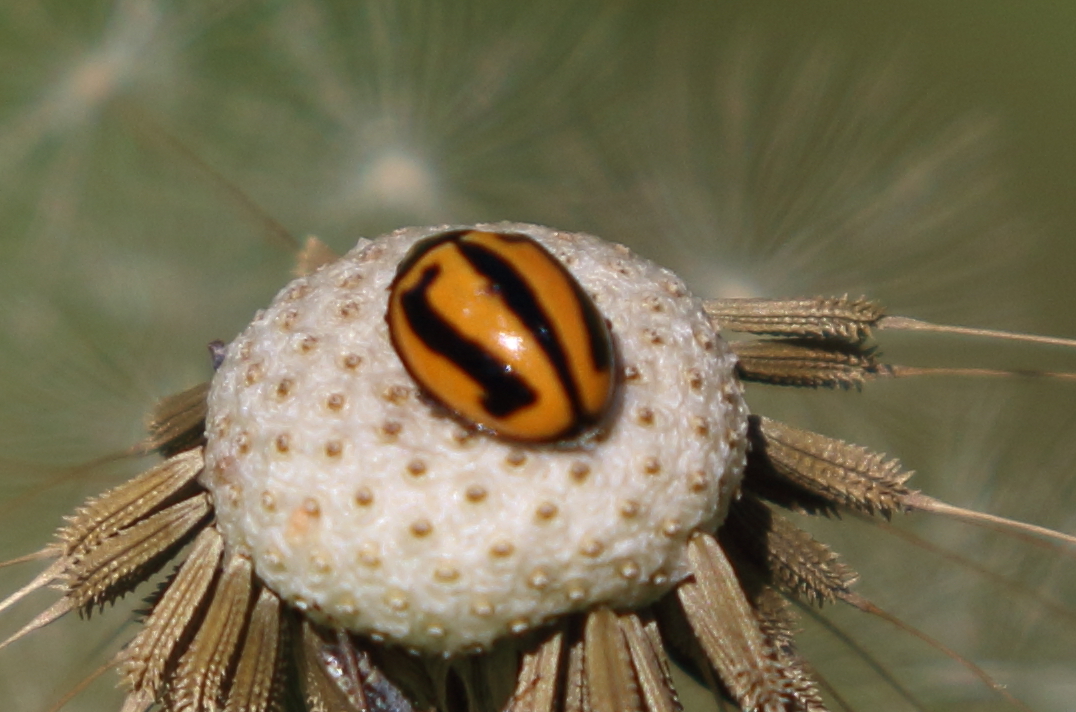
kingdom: Animalia
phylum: Arthropoda
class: Insecta
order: Coleoptera
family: Coccinellidae
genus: Micraspis
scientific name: Micraspis frenata
